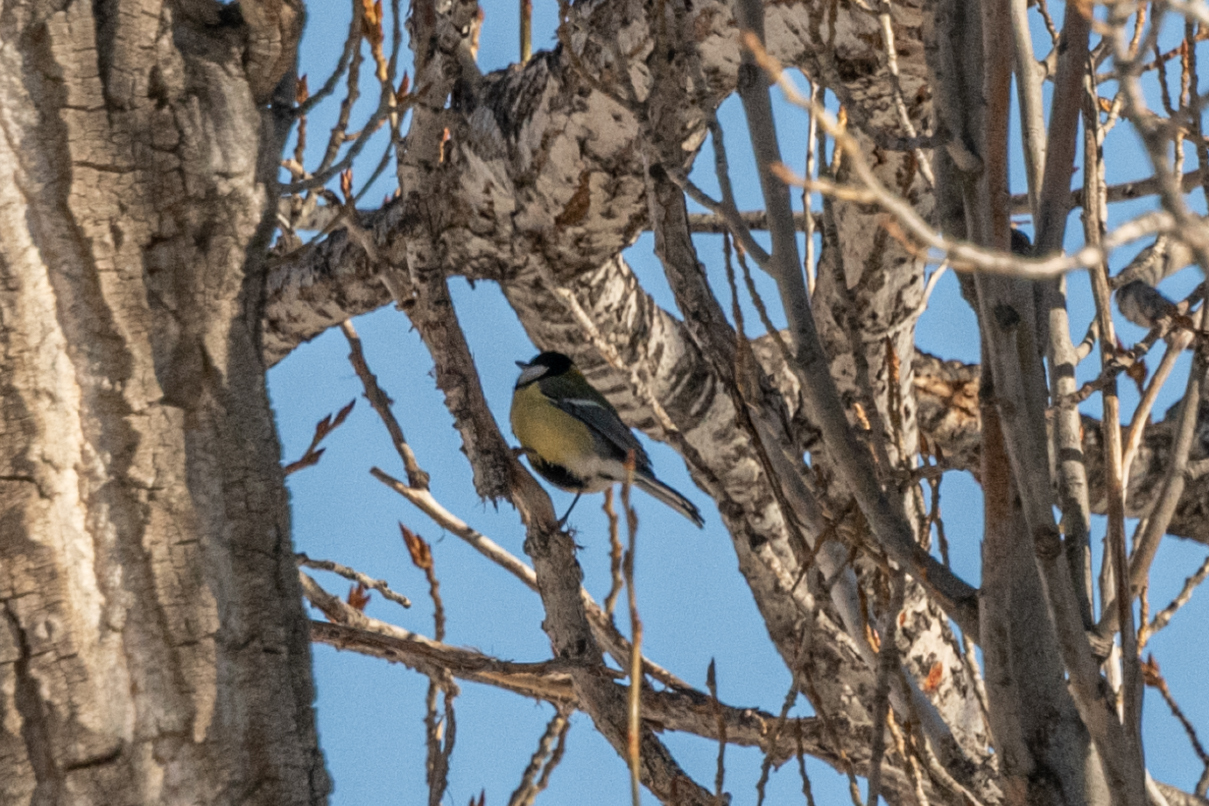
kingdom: Animalia
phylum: Chordata
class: Aves
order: Passeriformes
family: Paridae
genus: Parus
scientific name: Parus major
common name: Great tit
